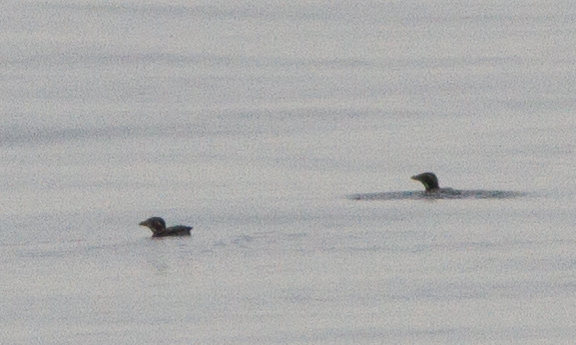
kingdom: Animalia
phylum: Chordata
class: Aves
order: Charadriiformes
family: Alcidae
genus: Cerorhinca
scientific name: Cerorhinca monocerata
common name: Rhinoceros auklet
